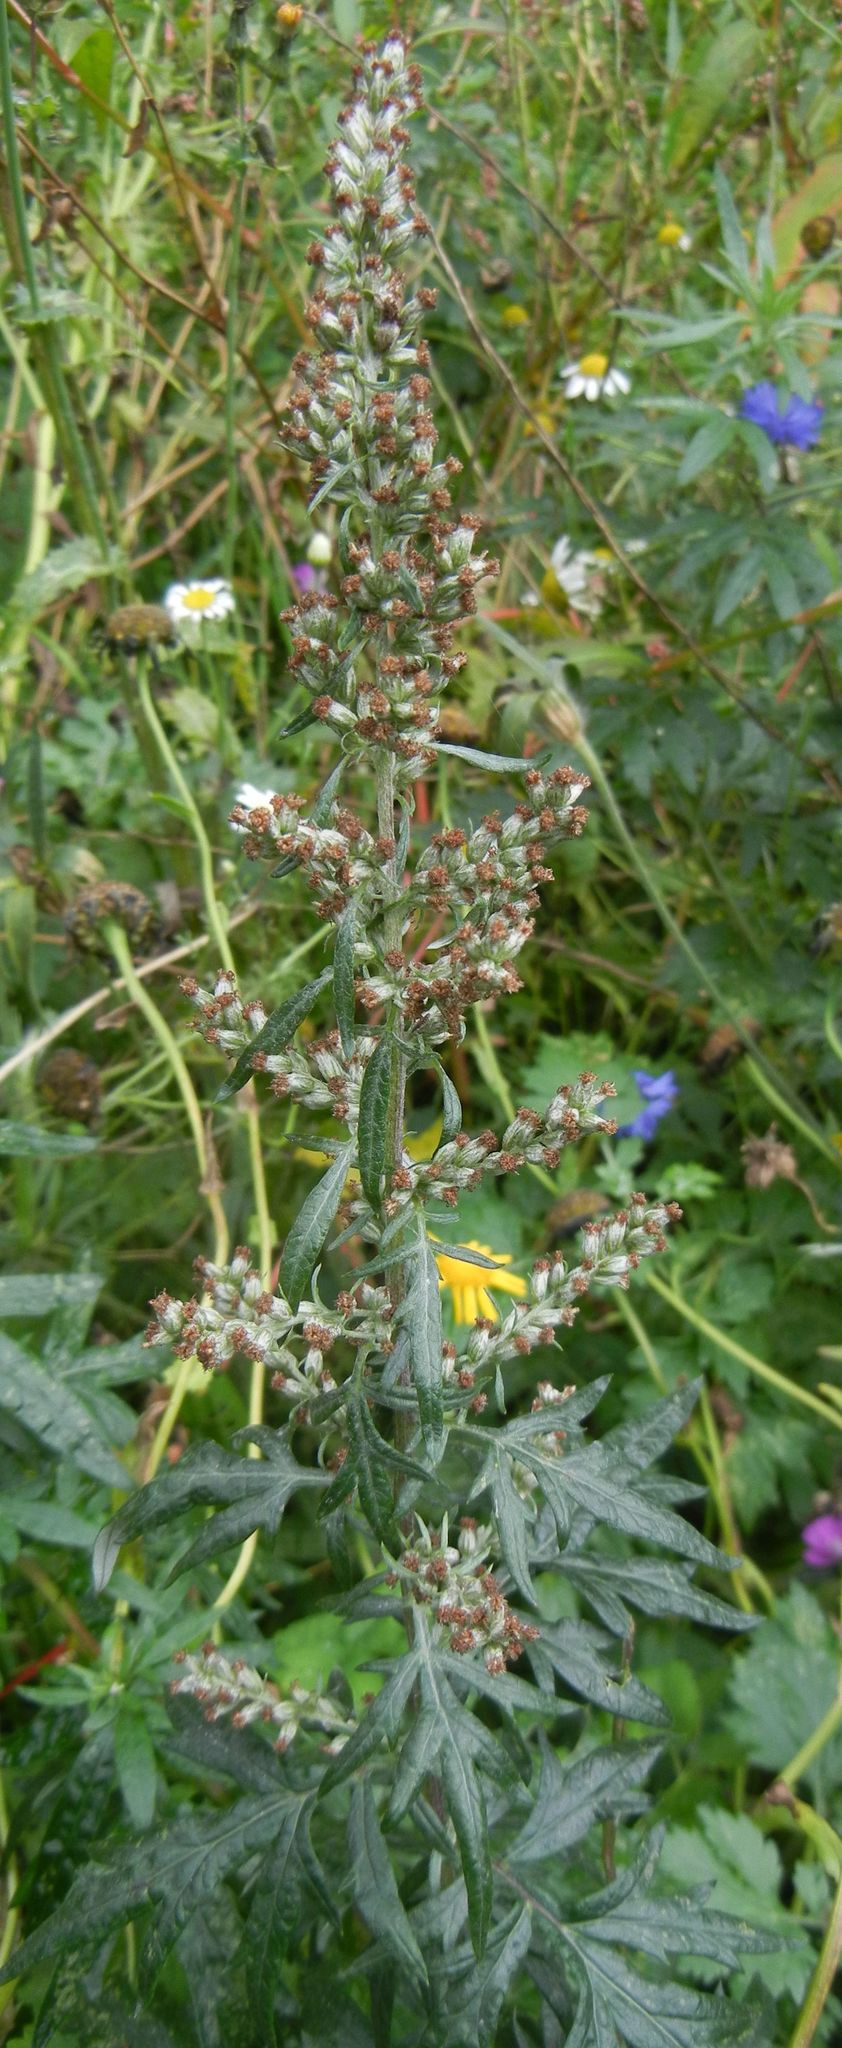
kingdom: Plantae
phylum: Tracheophyta
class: Magnoliopsida
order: Asterales
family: Asteraceae
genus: Artemisia
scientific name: Artemisia vulgaris
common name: Mugwort
